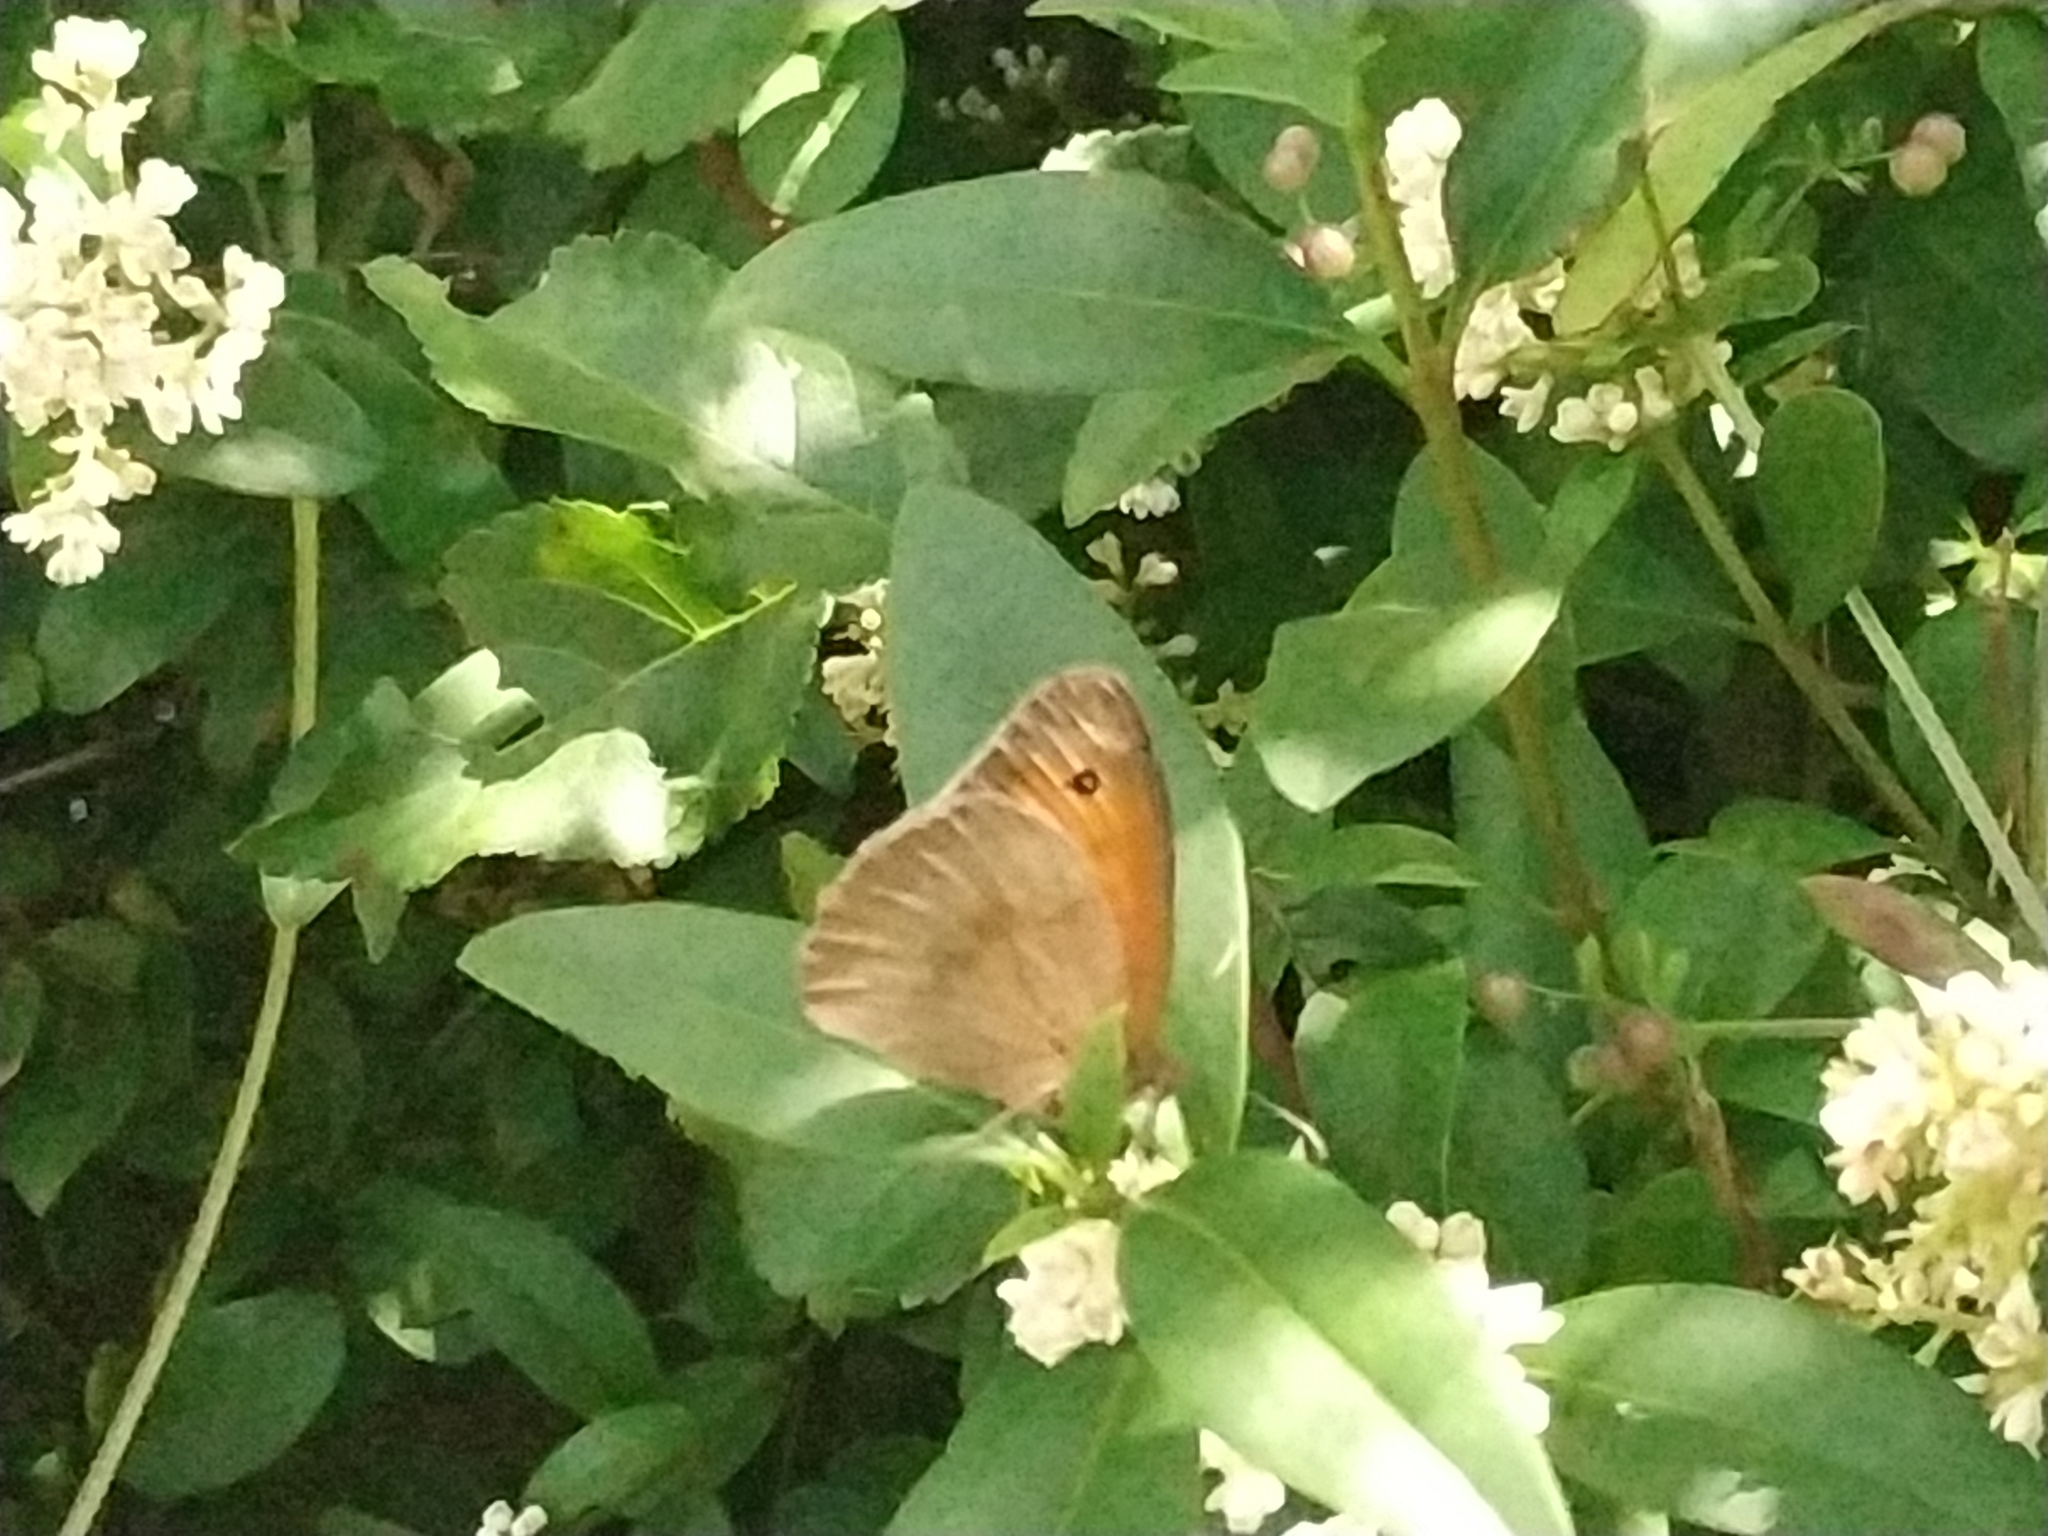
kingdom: Animalia
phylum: Arthropoda
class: Insecta
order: Lepidoptera
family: Nymphalidae
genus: Maniola
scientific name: Maniola jurtina
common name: Meadow brown
